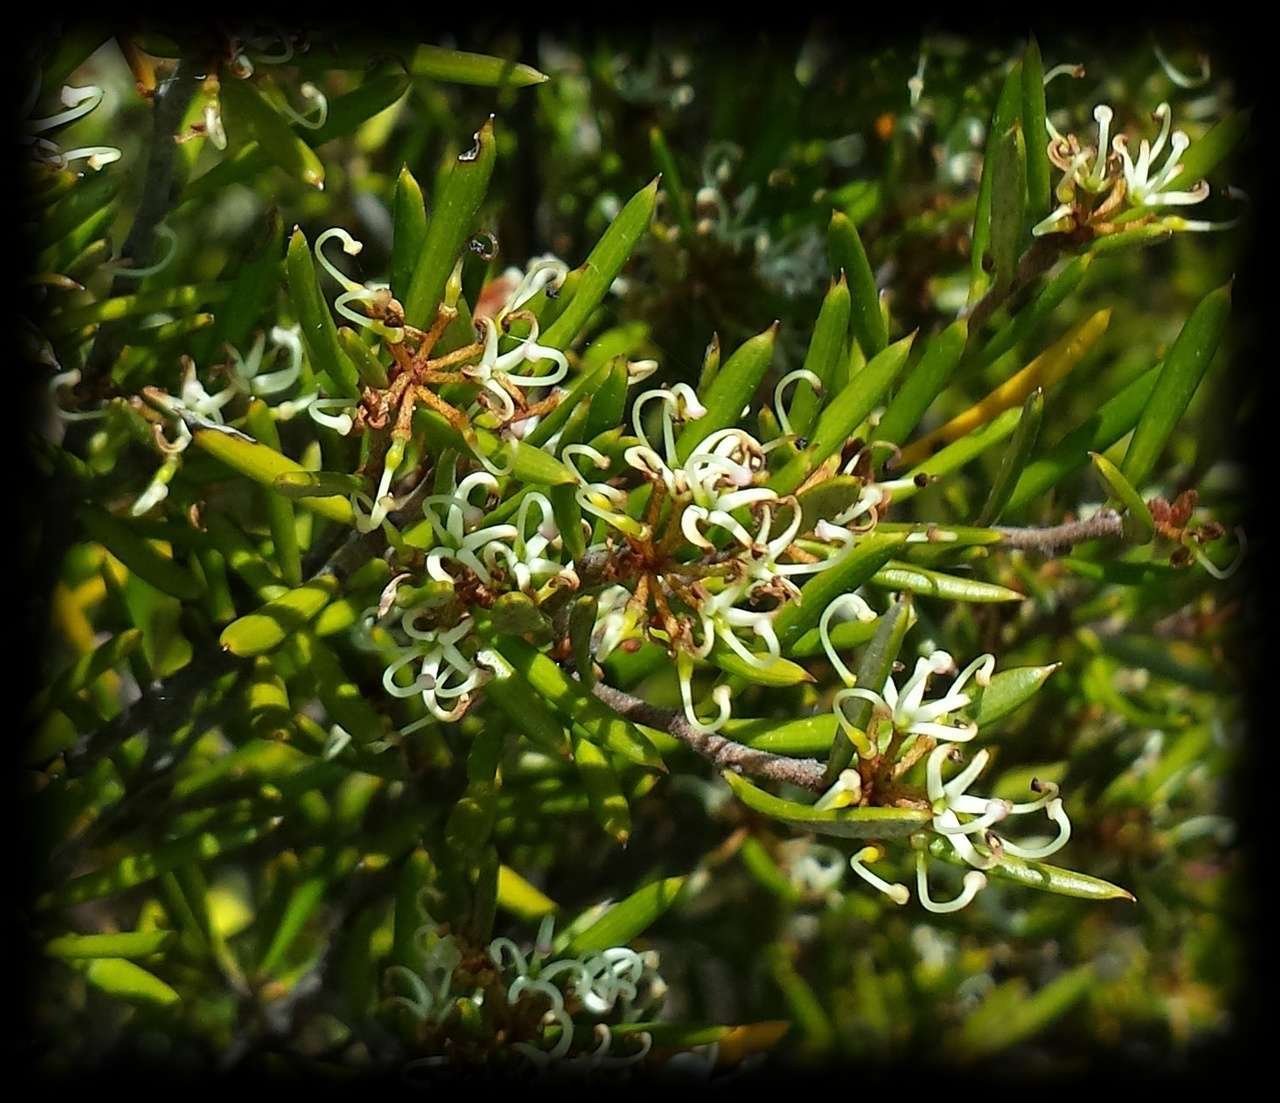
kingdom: Plantae
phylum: Tracheophyta
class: Magnoliopsida
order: Proteales
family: Proteaceae
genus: Grevillea
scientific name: Grevillea australis
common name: Alpine grevillea
